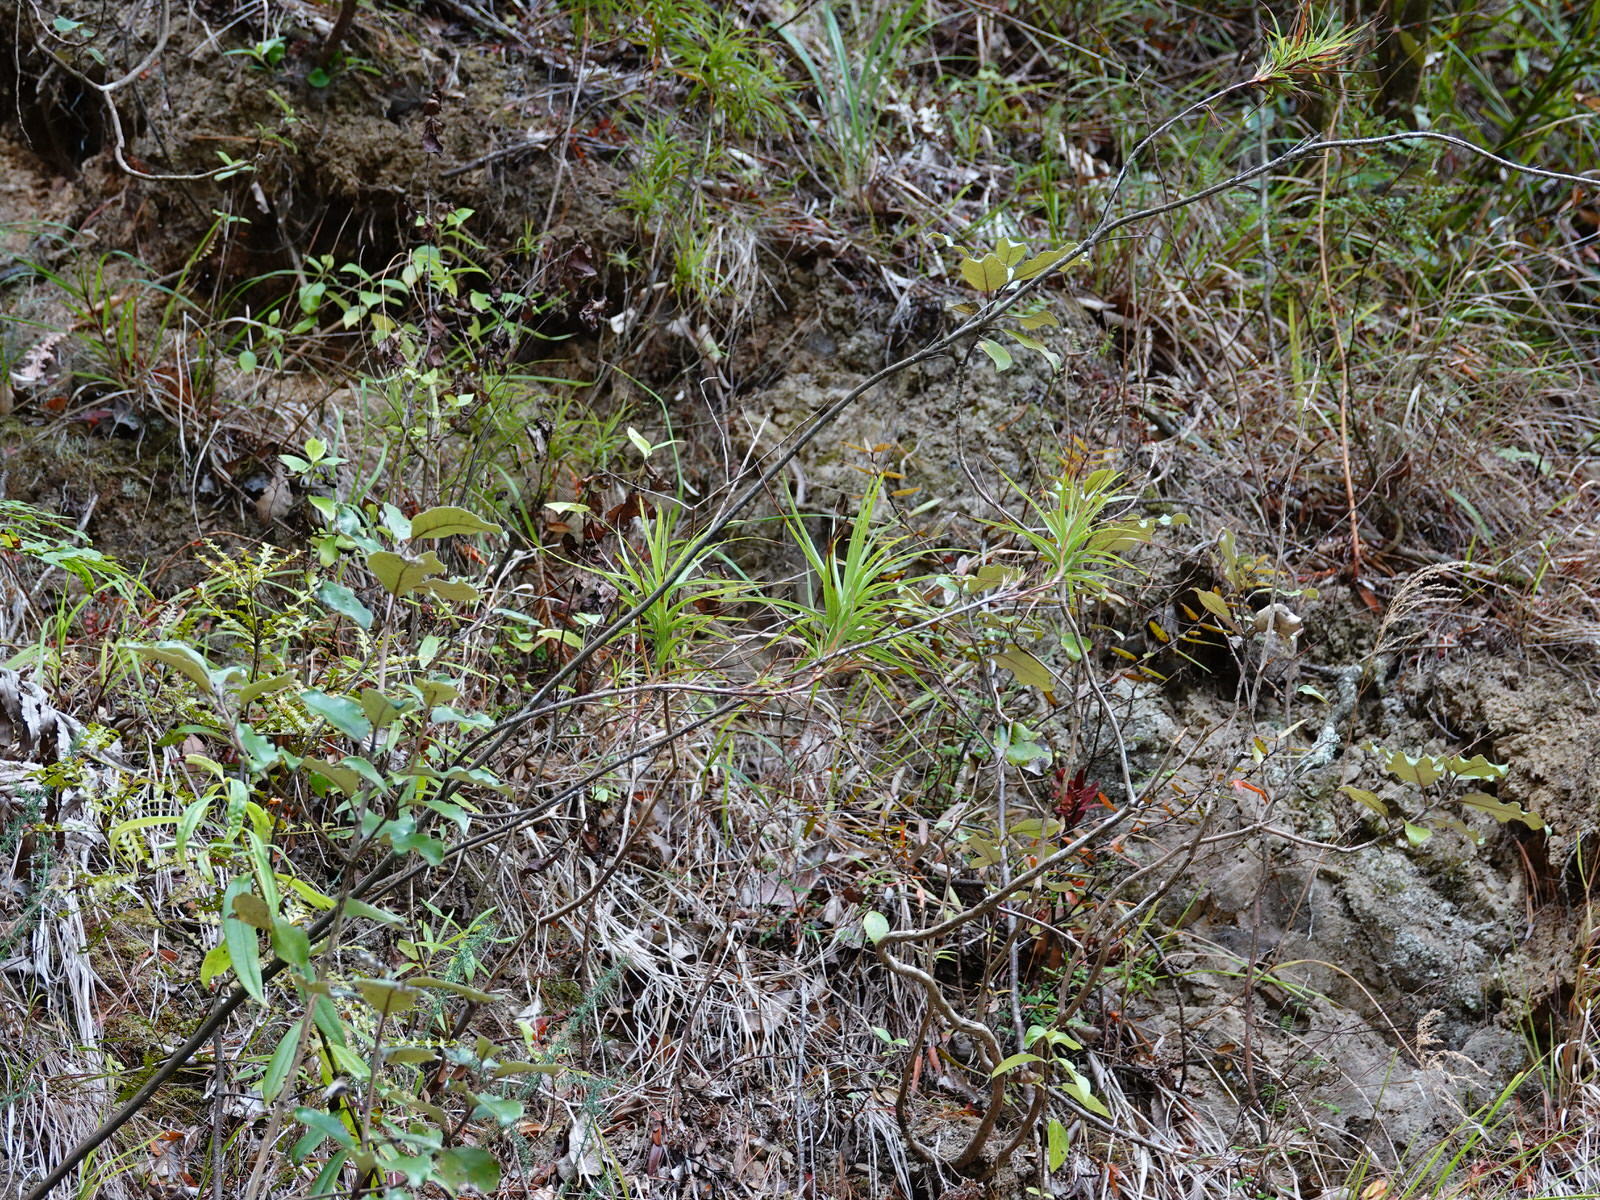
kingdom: Plantae
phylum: Tracheophyta
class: Magnoliopsida
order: Ericales
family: Ericaceae
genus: Dracophyllum
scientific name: Dracophyllum sinclairii
